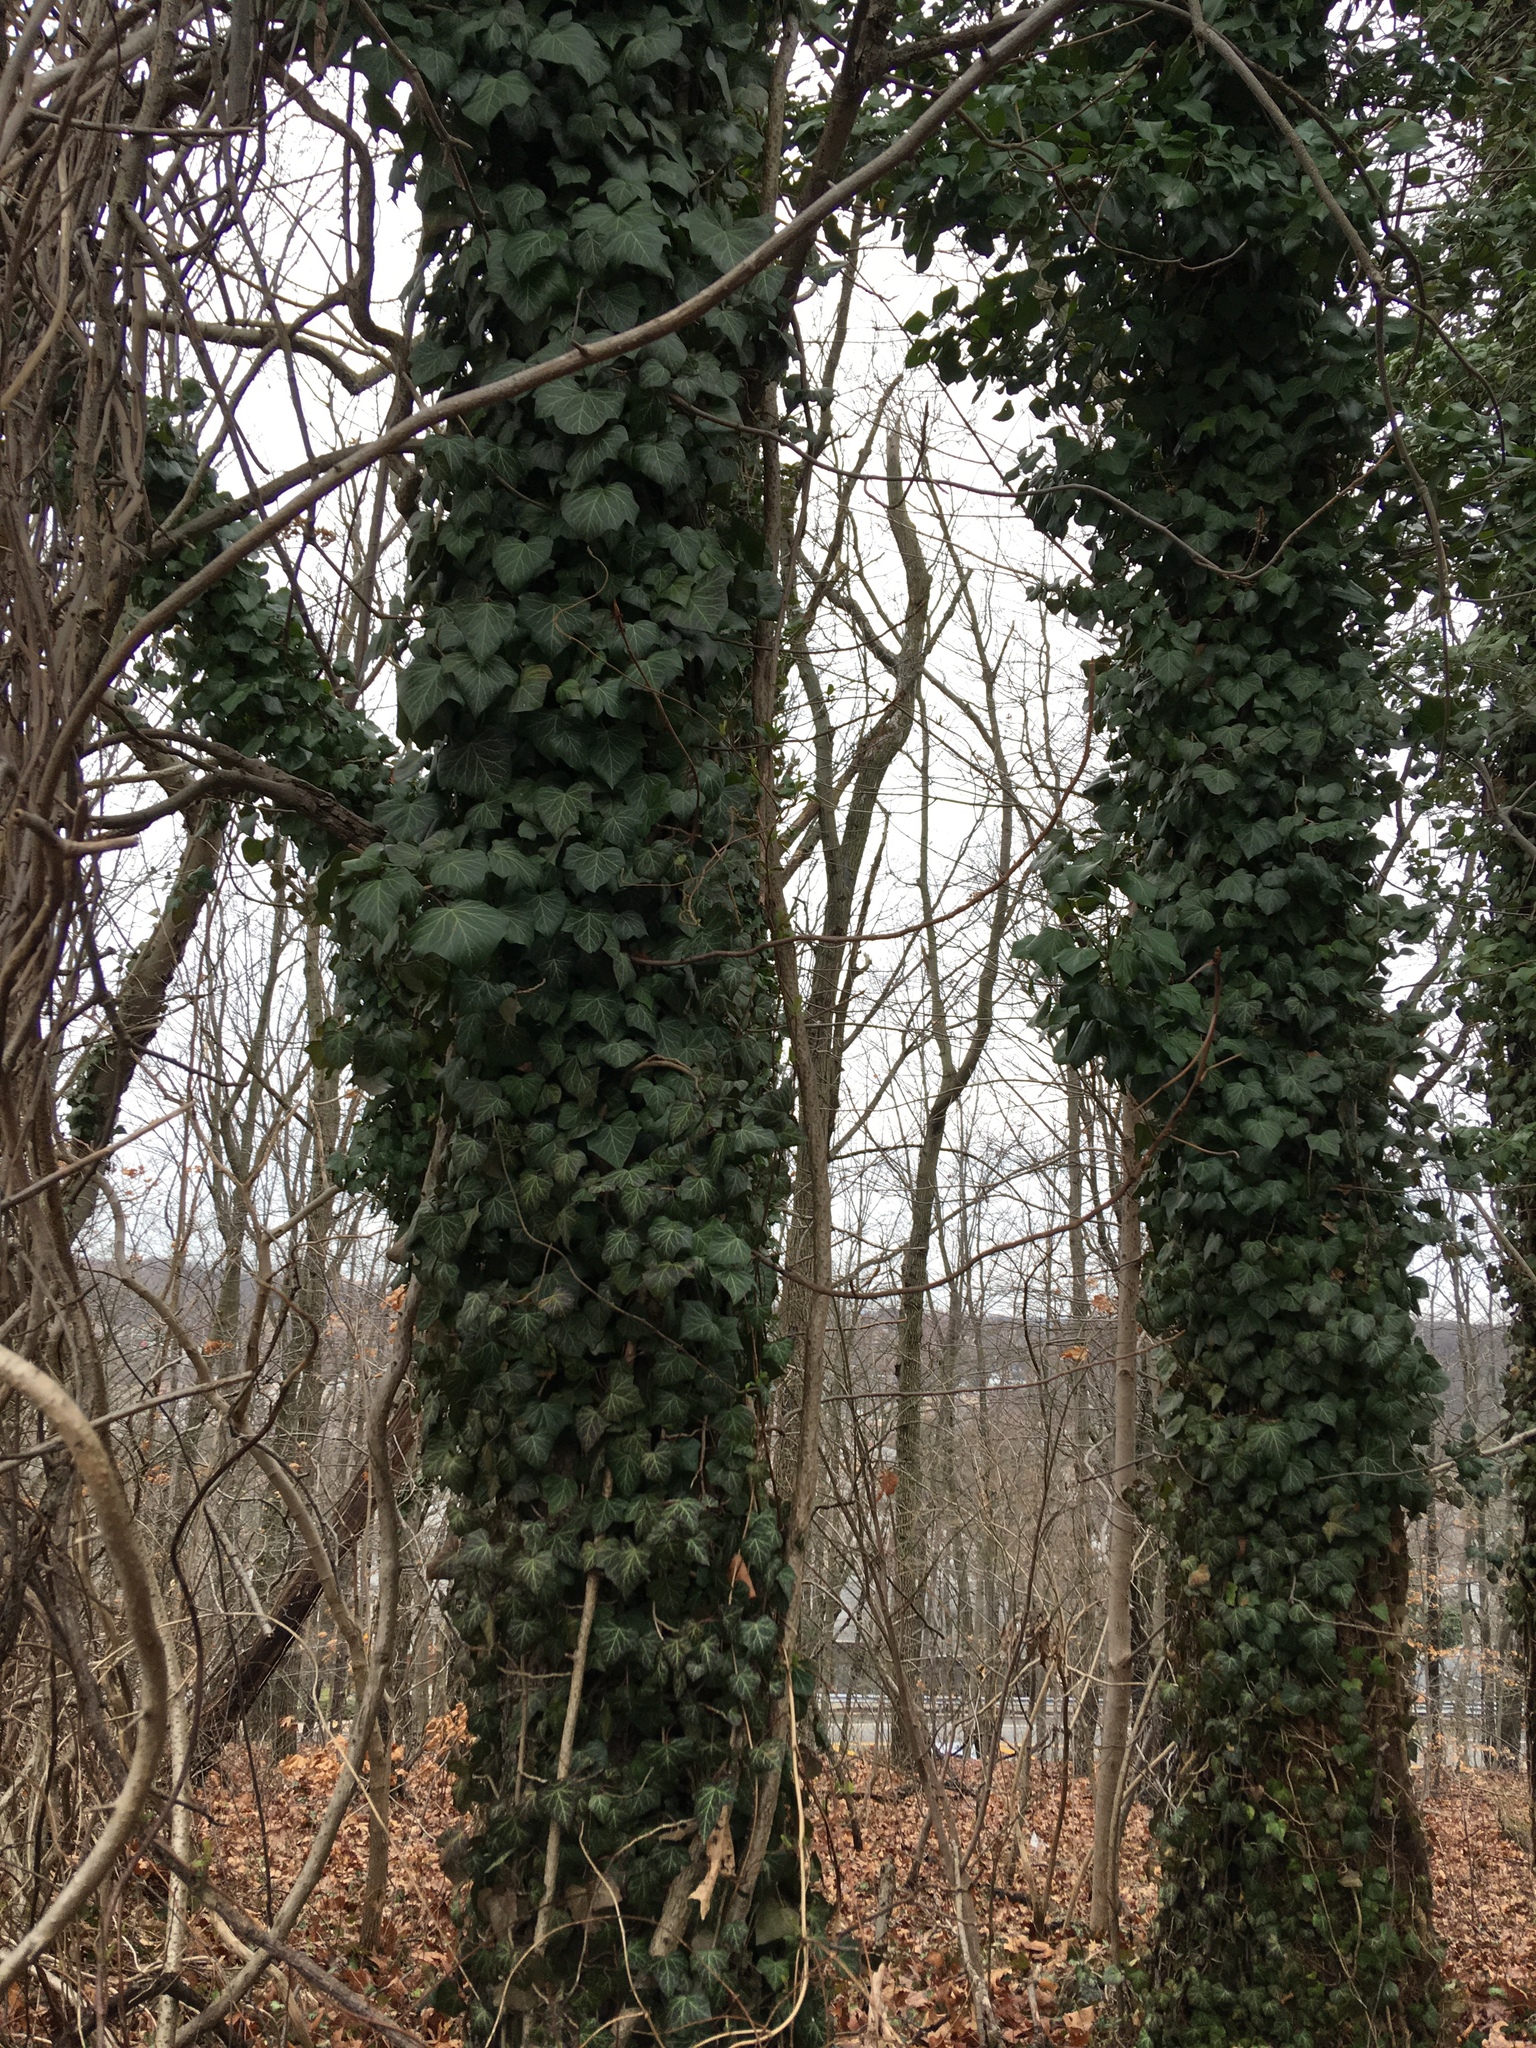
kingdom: Plantae
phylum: Tracheophyta
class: Magnoliopsida
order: Apiales
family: Araliaceae
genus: Hedera
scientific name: Hedera helix
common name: Ivy
